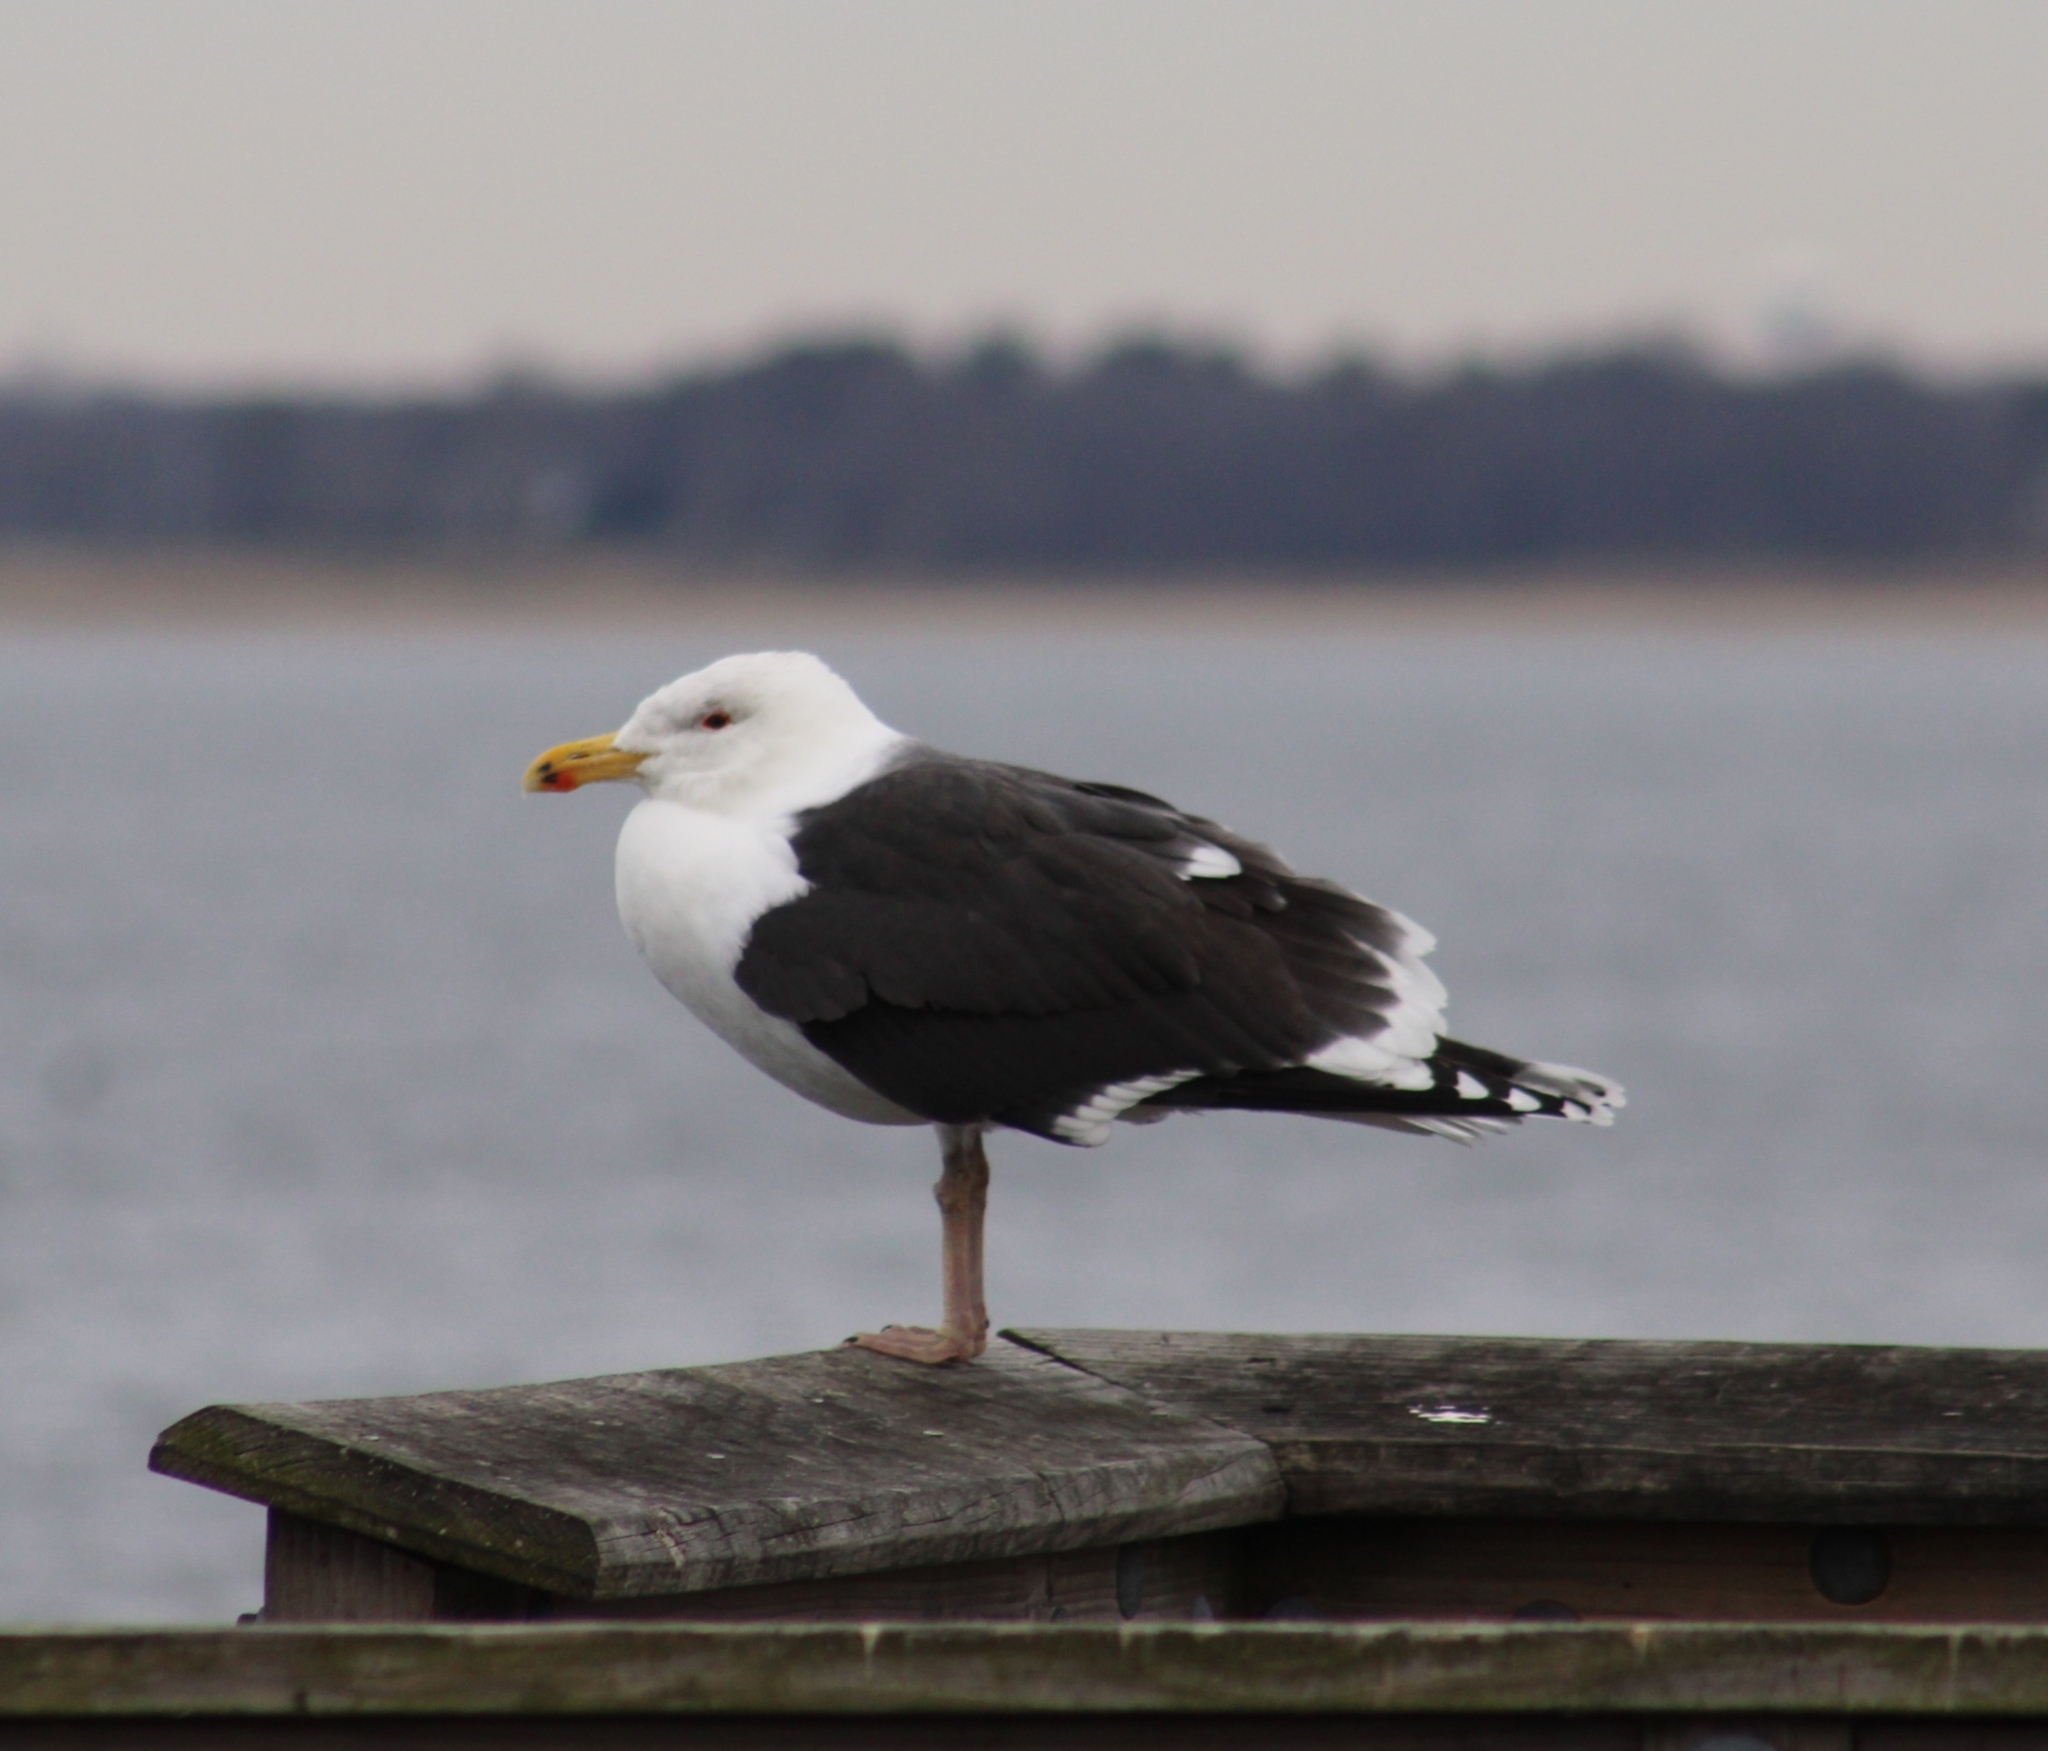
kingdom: Animalia
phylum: Chordata
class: Aves
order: Charadriiformes
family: Laridae
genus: Larus
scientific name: Larus marinus
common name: Great black-backed gull
